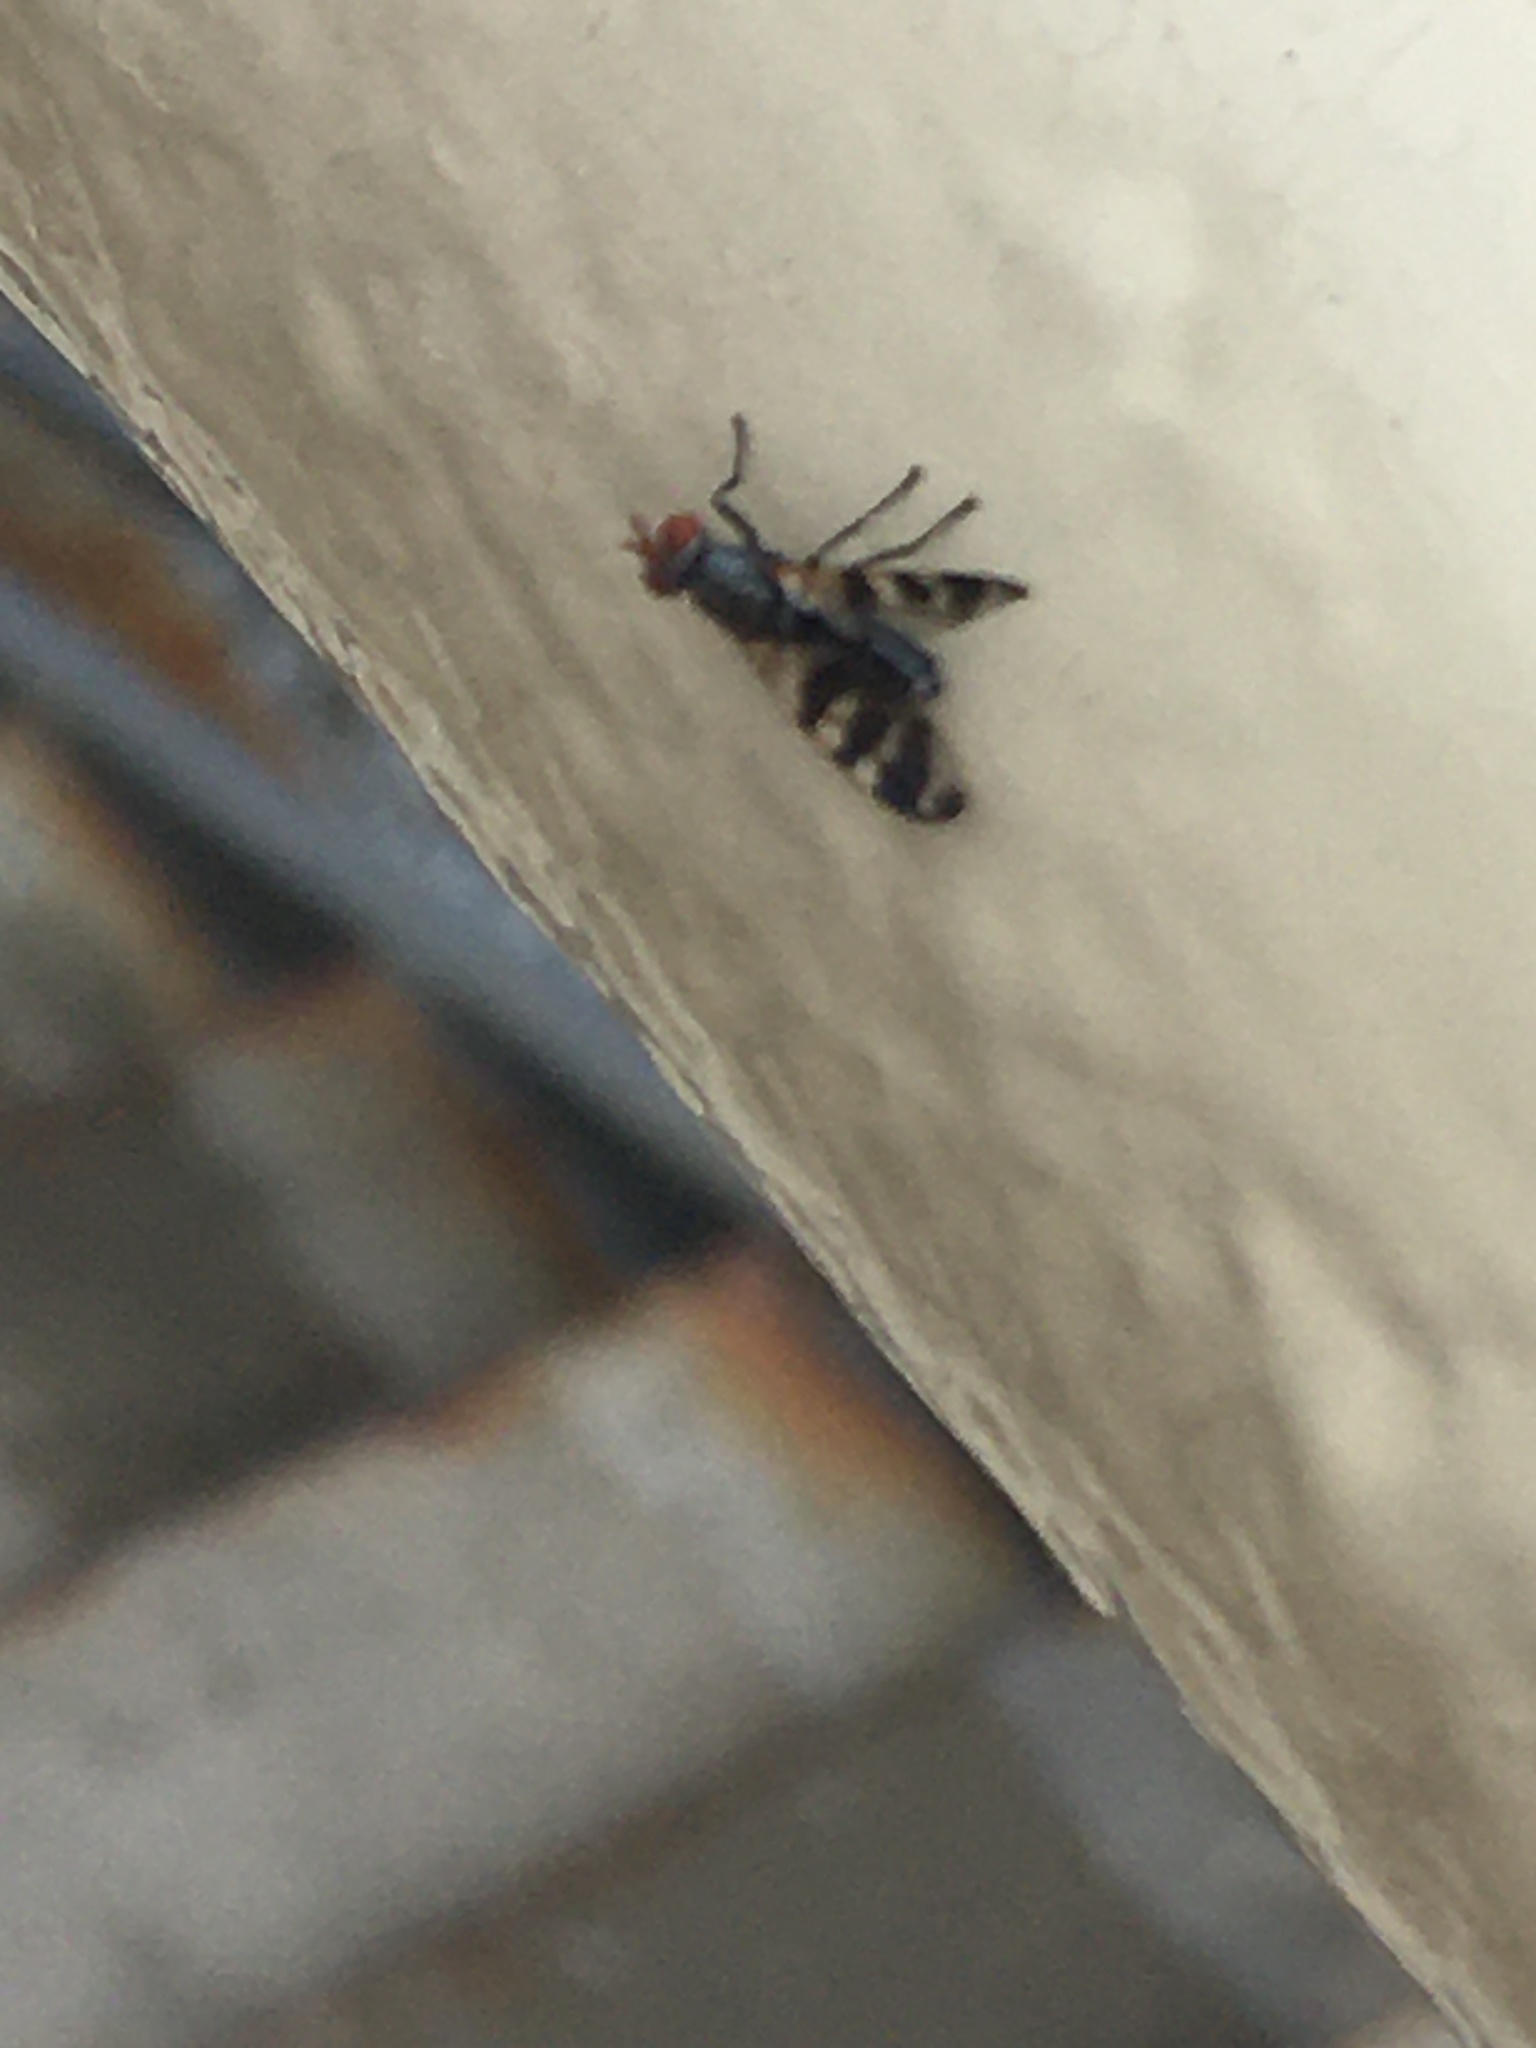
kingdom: Animalia
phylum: Arthropoda
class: Insecta
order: Diptera
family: Ulidiidae
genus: Ceroxys
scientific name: Ceroxys urticae
